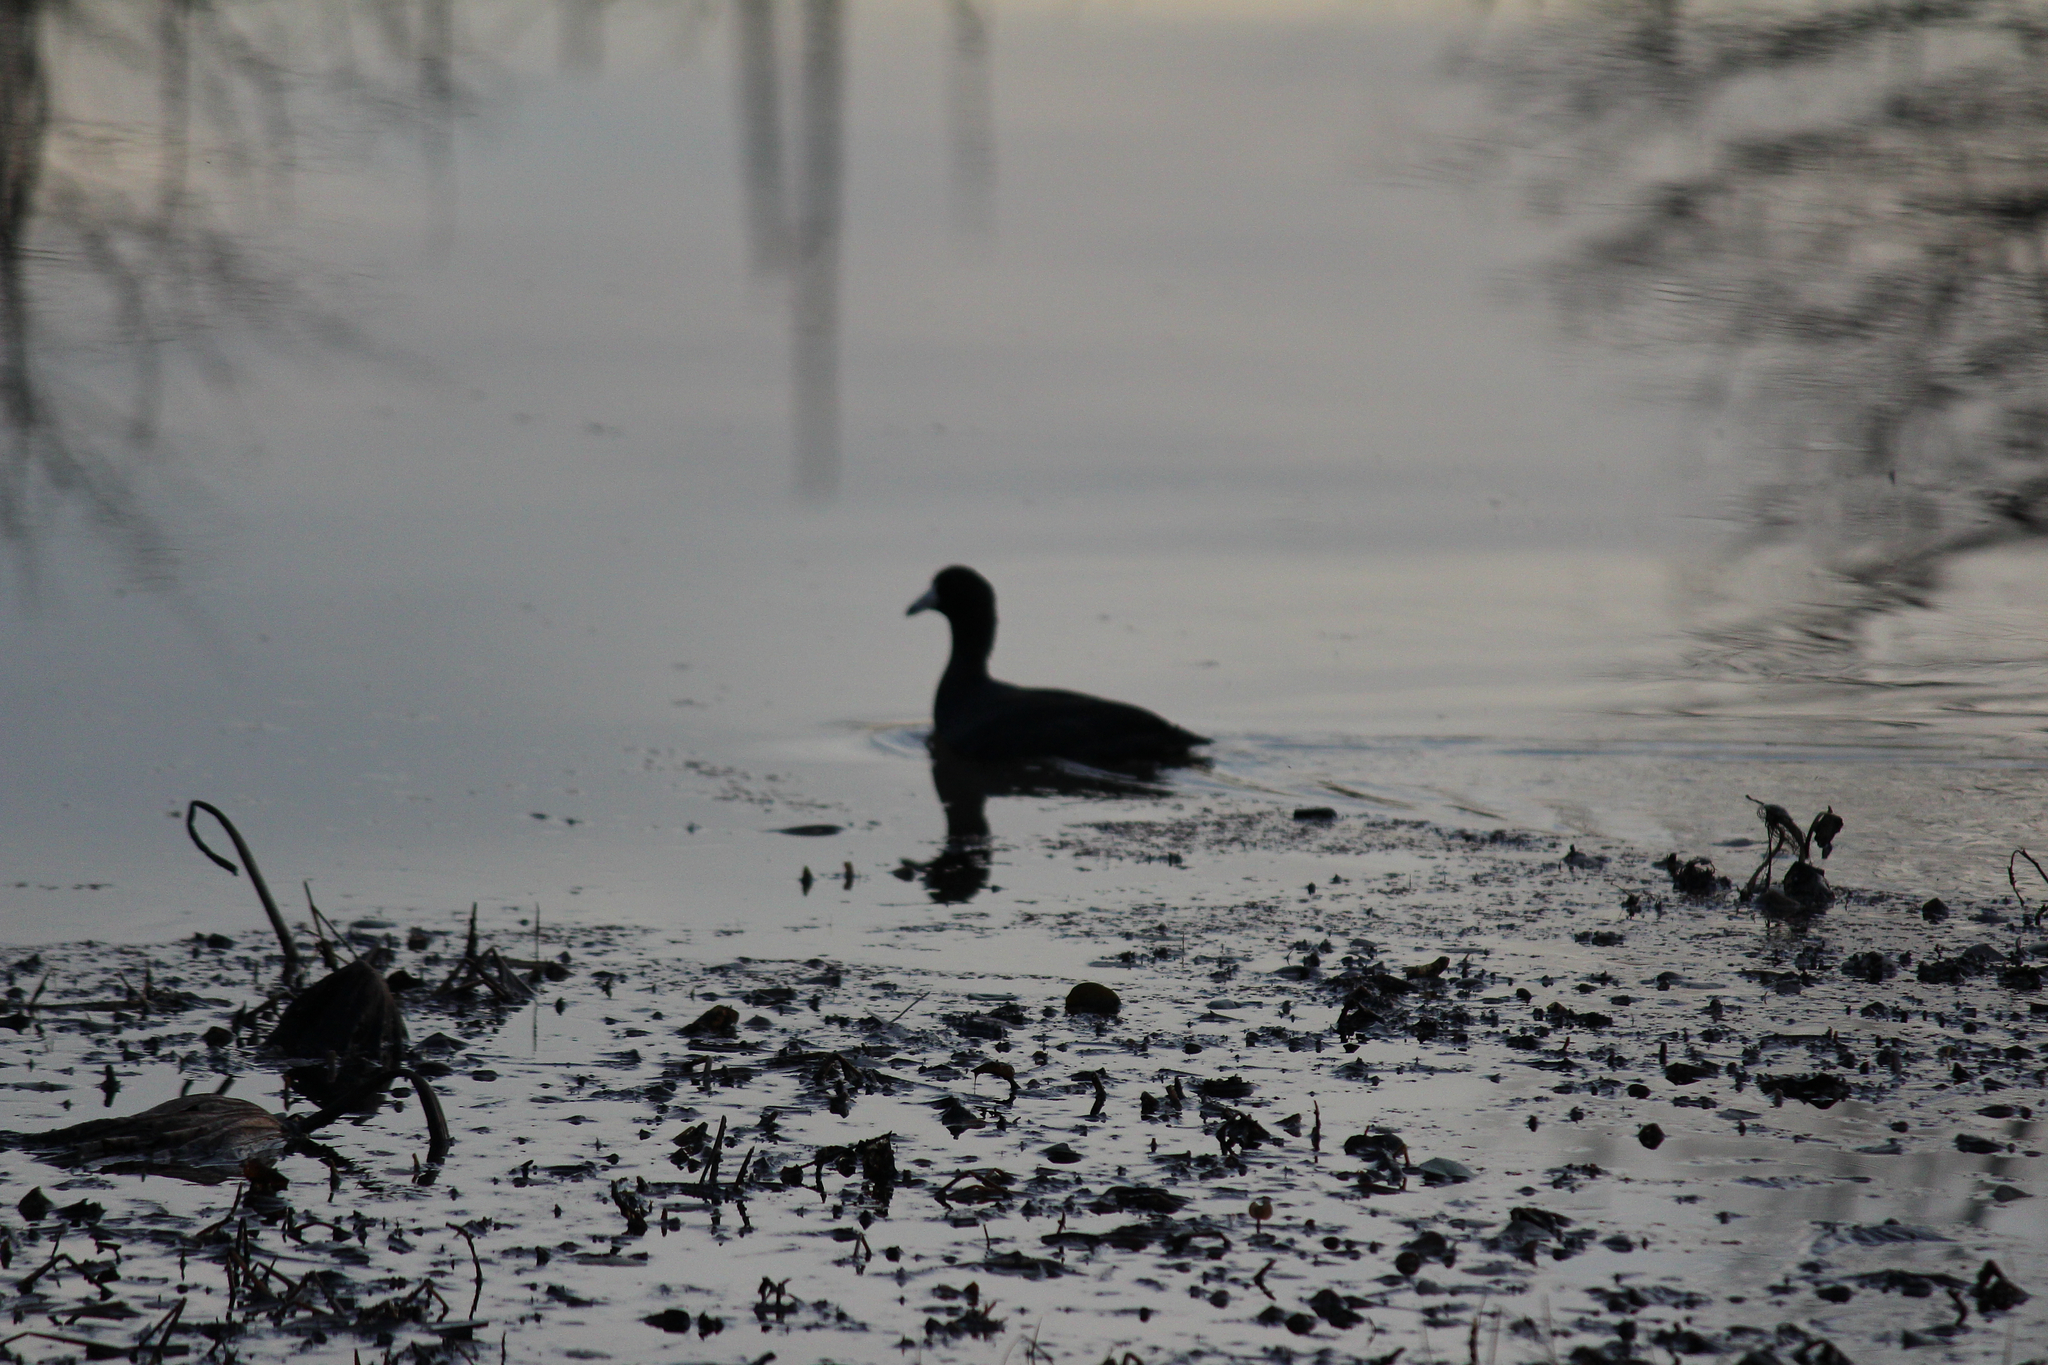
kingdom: Animalia
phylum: Chordata
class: Aves
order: Gruiformes
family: Rallidae
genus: Fulica
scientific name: Fulica americana
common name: American coot
